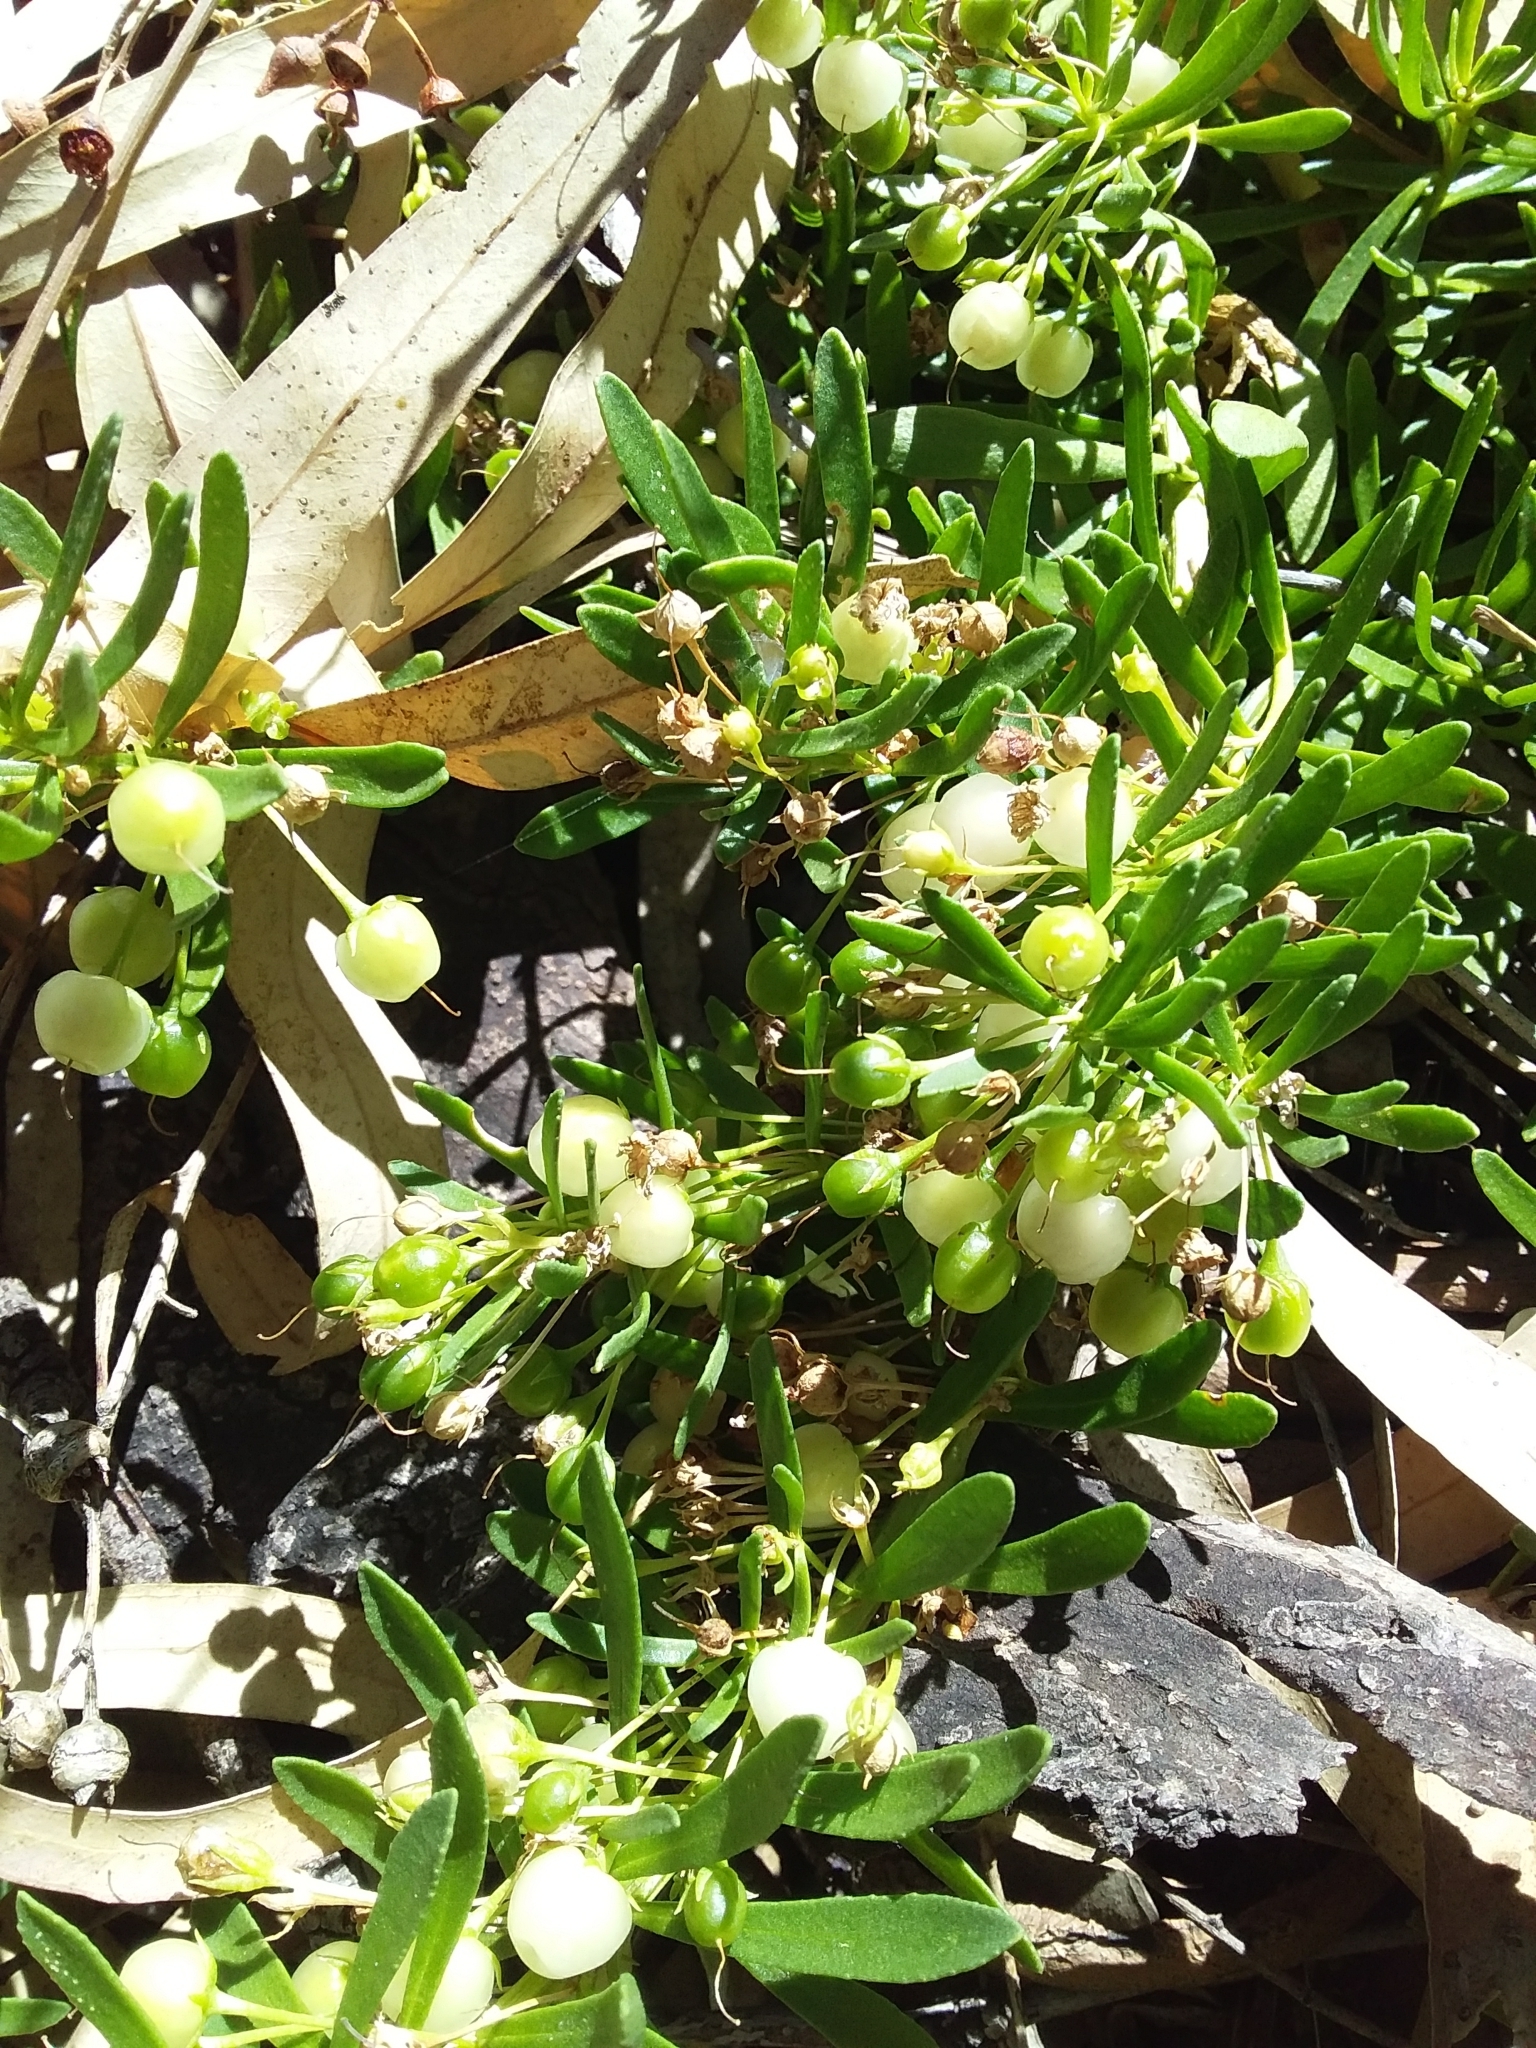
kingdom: Plantae
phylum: Tracheophyta
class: Magnoliopsida
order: Lamiales
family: Scrophulariaceae
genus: Myoporum
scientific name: Myoporum parvifolium
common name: Dwarf native-myrtle
